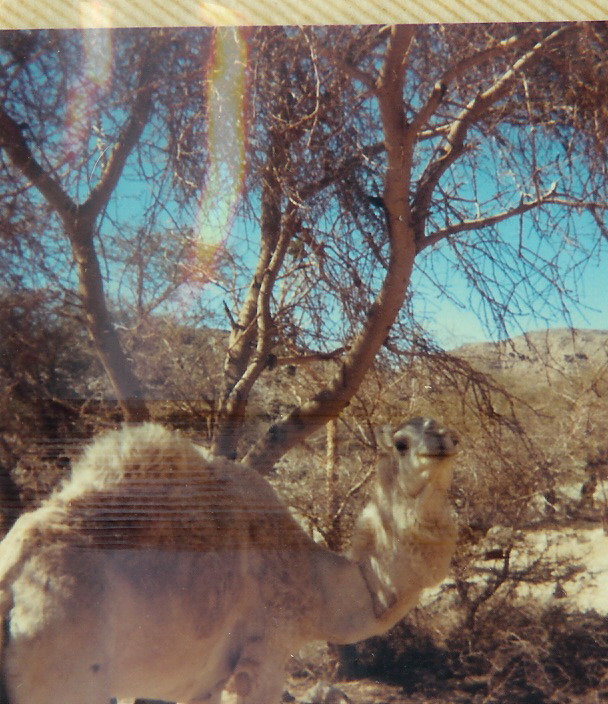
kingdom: Animalia
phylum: Chordata
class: Mammalia
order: Artiodactyla
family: Camelidae
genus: Camelus
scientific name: Camelus dromedarius
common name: One-humped camel
